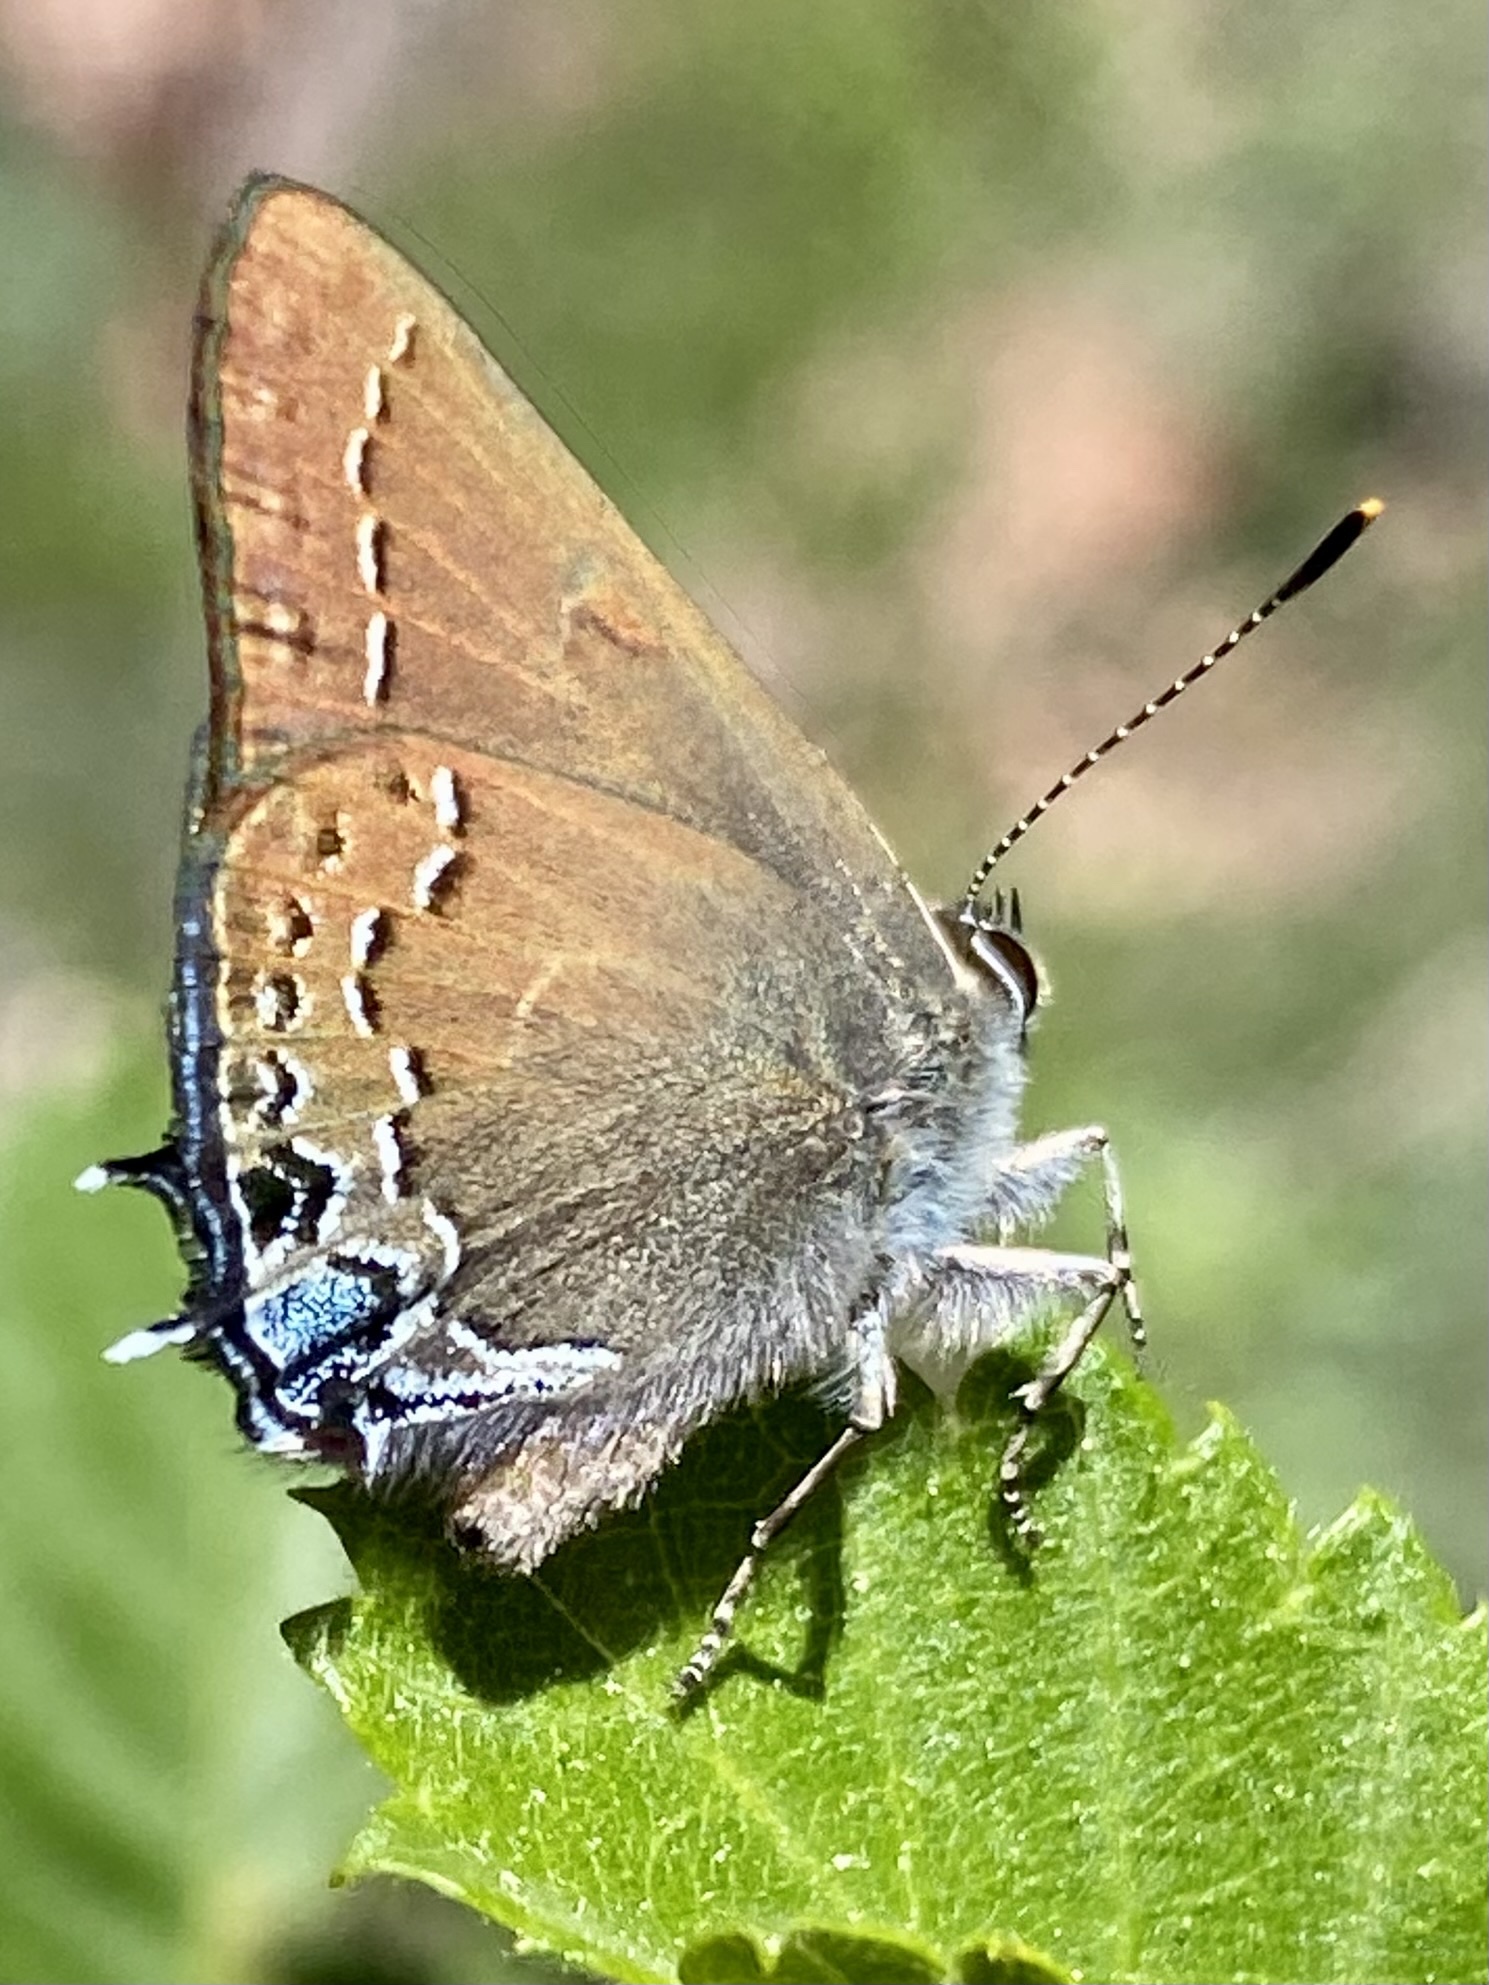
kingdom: Animalia
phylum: Arthropoda
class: Insecta
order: Lepidoptera
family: Lycaenidae
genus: Strymon
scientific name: Strymon saepium
